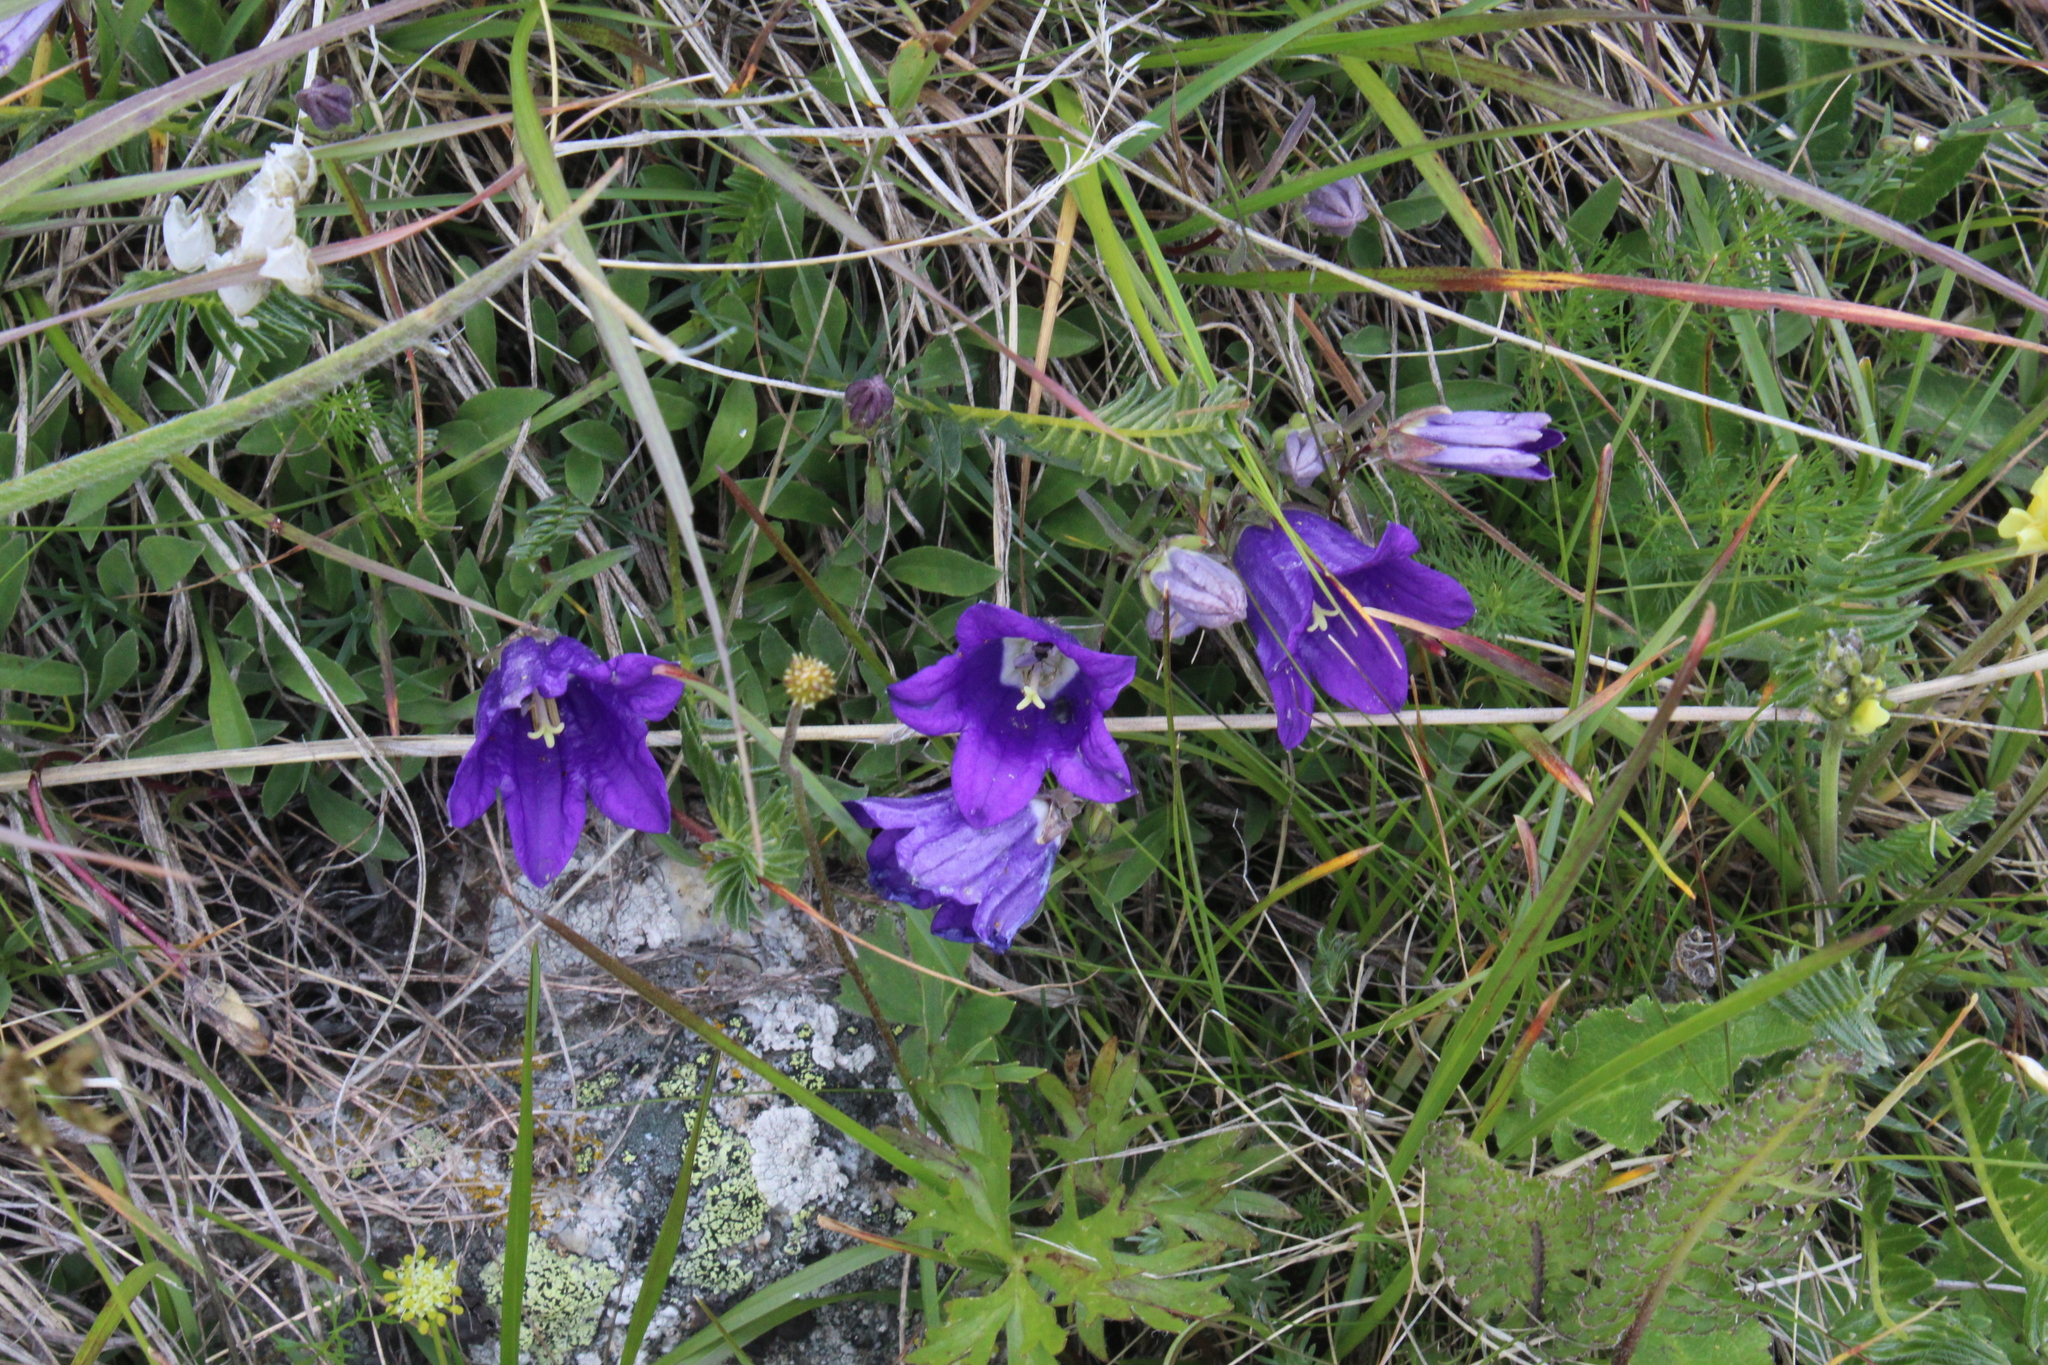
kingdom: Plantae
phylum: Tracheophyta
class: Magnoliopsida
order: Asterales
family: Campanulaceae
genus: Campanula
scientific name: Campanula saxifraga
